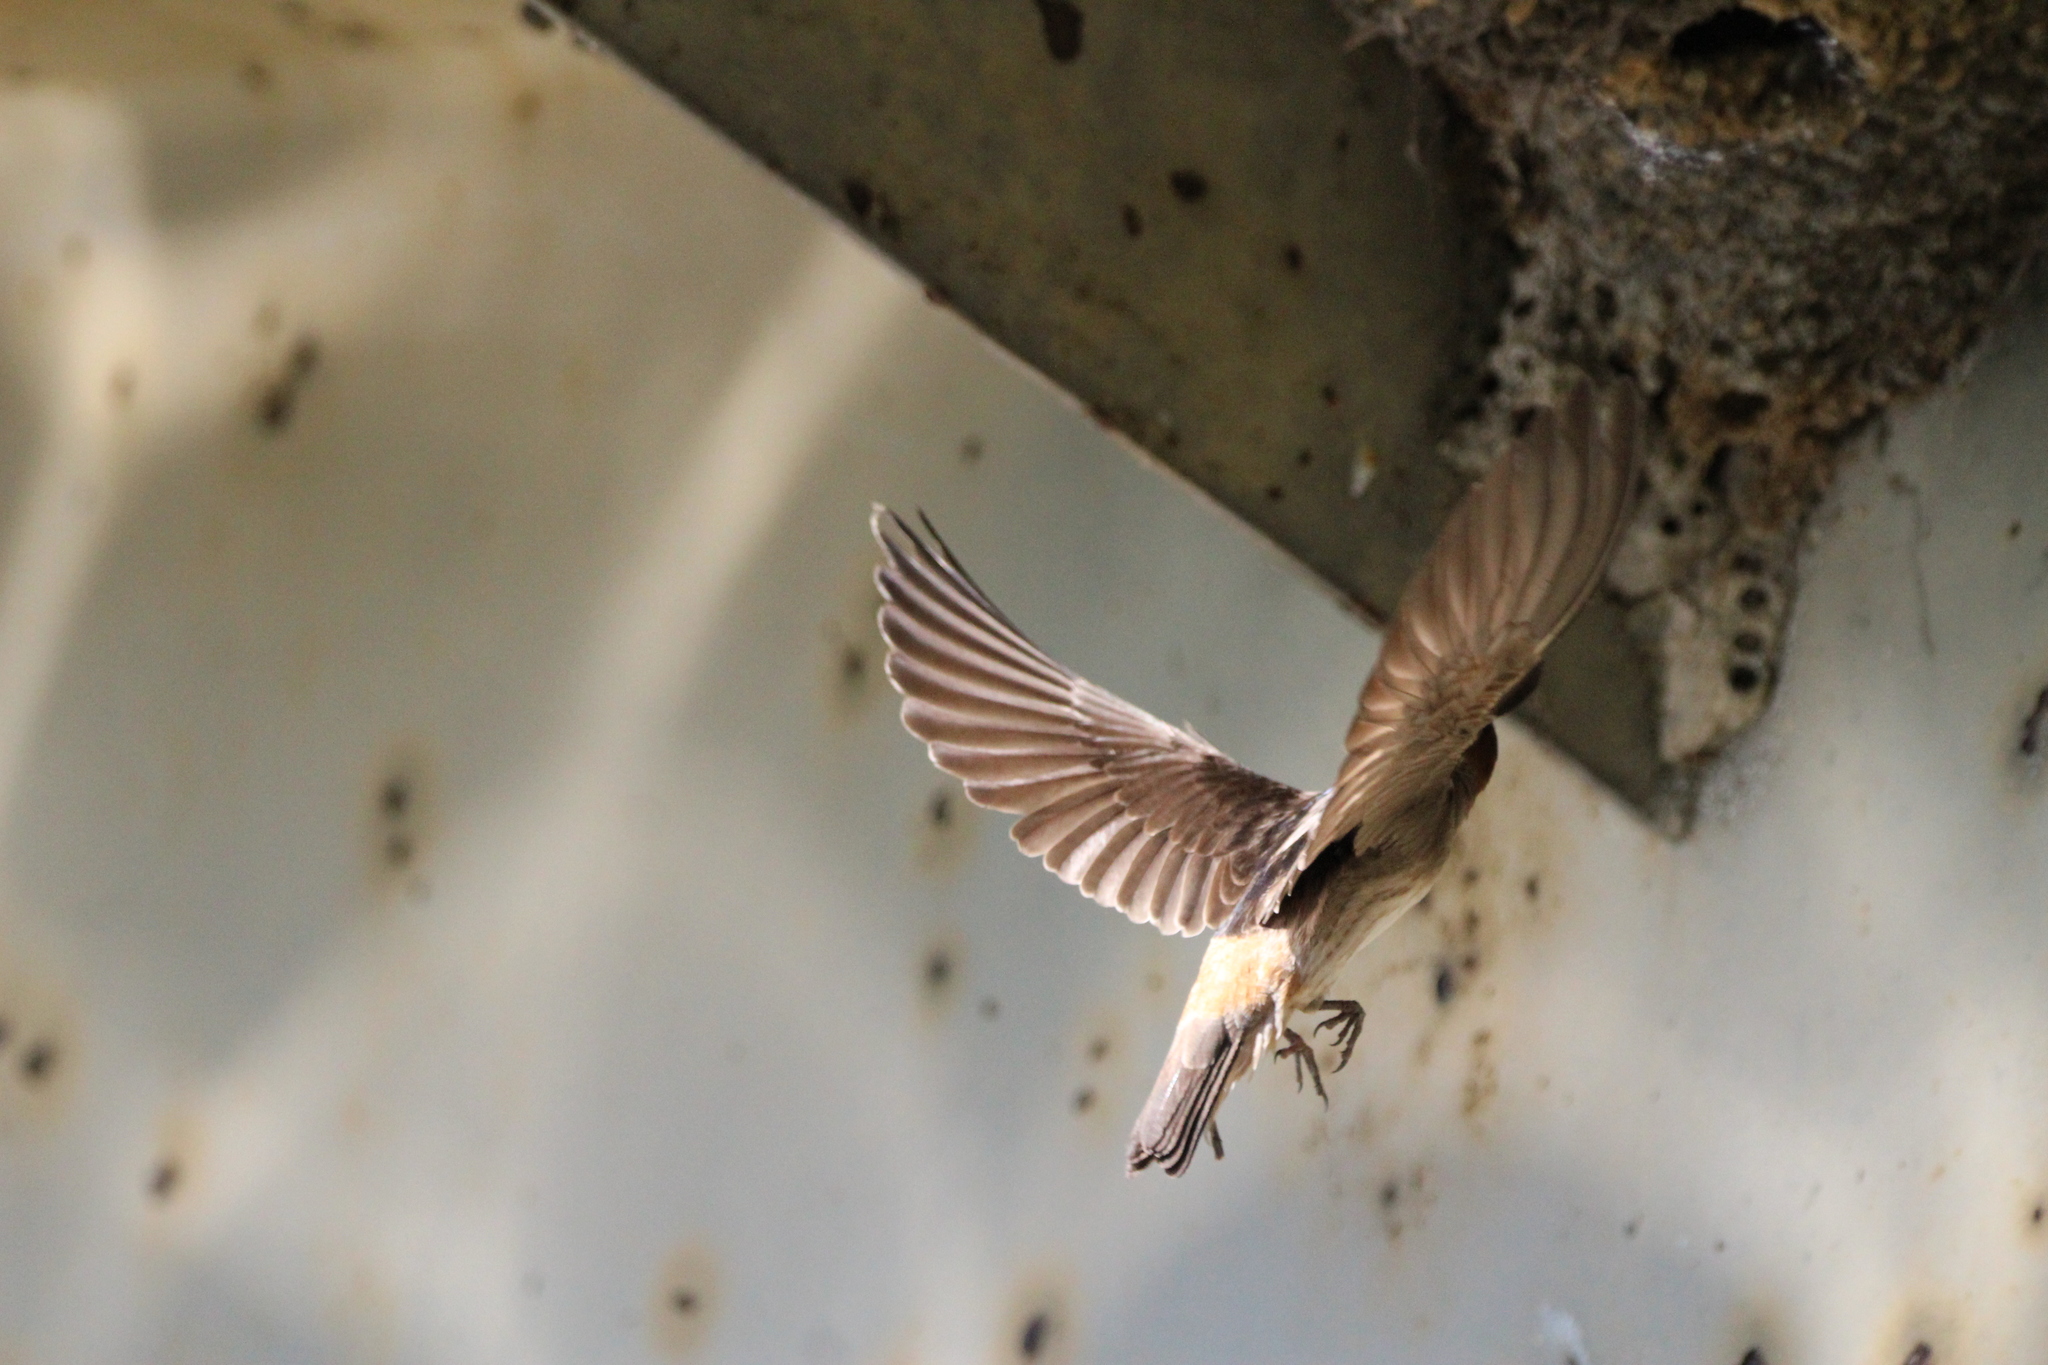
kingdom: Animalia
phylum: Chordata
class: Aves
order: Passeriformes
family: Hirundinidae
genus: Petrochelidon
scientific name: Petrochelidon pyrrhonota
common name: American cliff swallow
